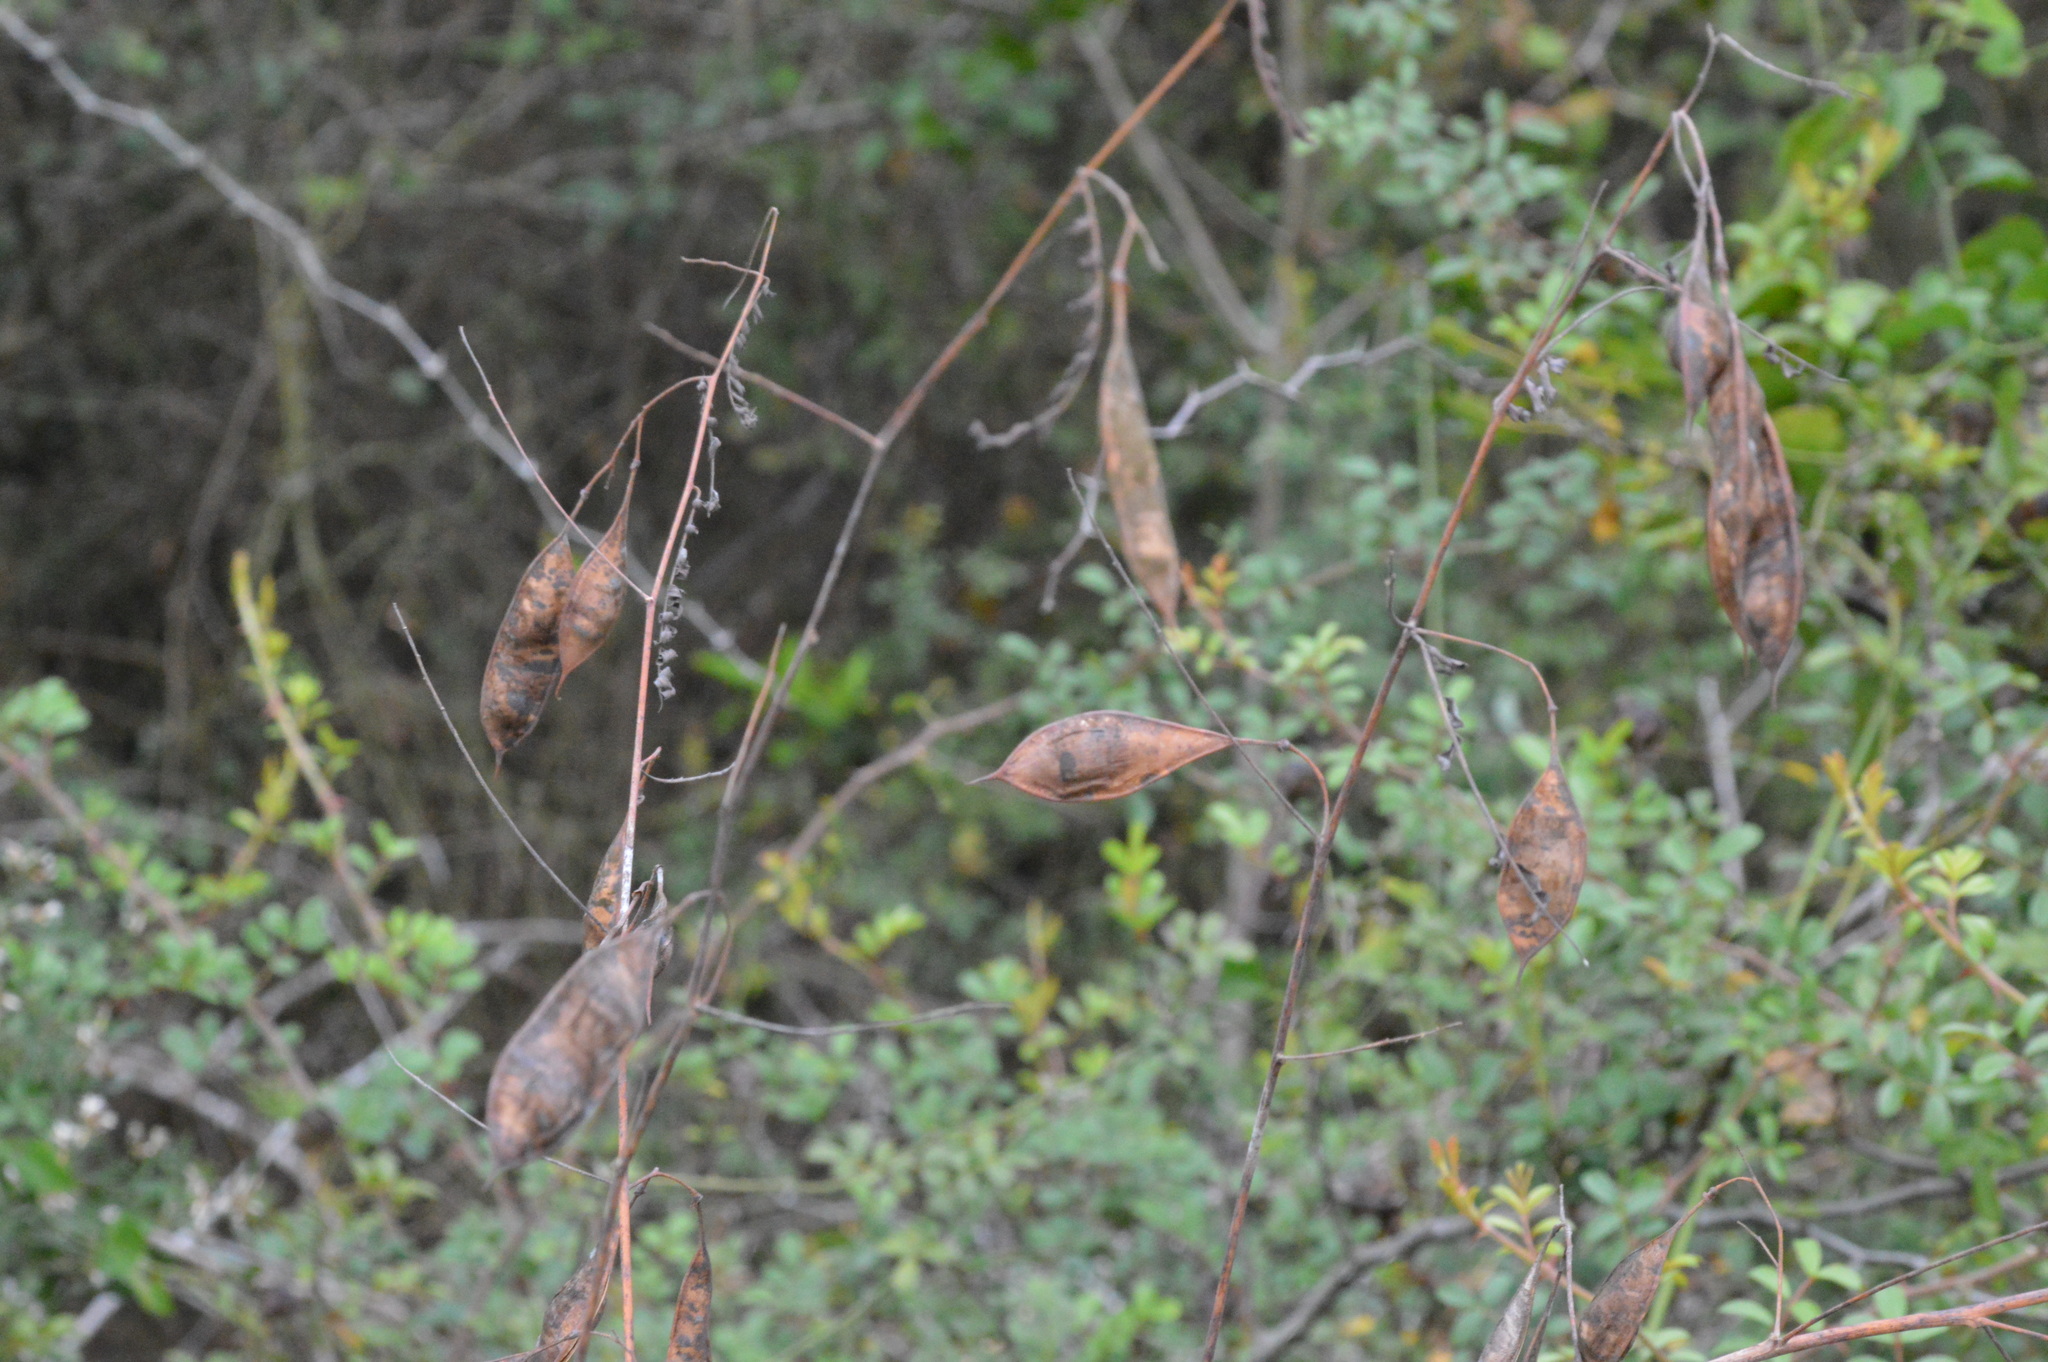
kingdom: Plantae
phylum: Tracheophyta
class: Magnoliopsida
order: Fabales
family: Fabaceae
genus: Sesbania
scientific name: Sesbania vesicaria
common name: Bagpod
